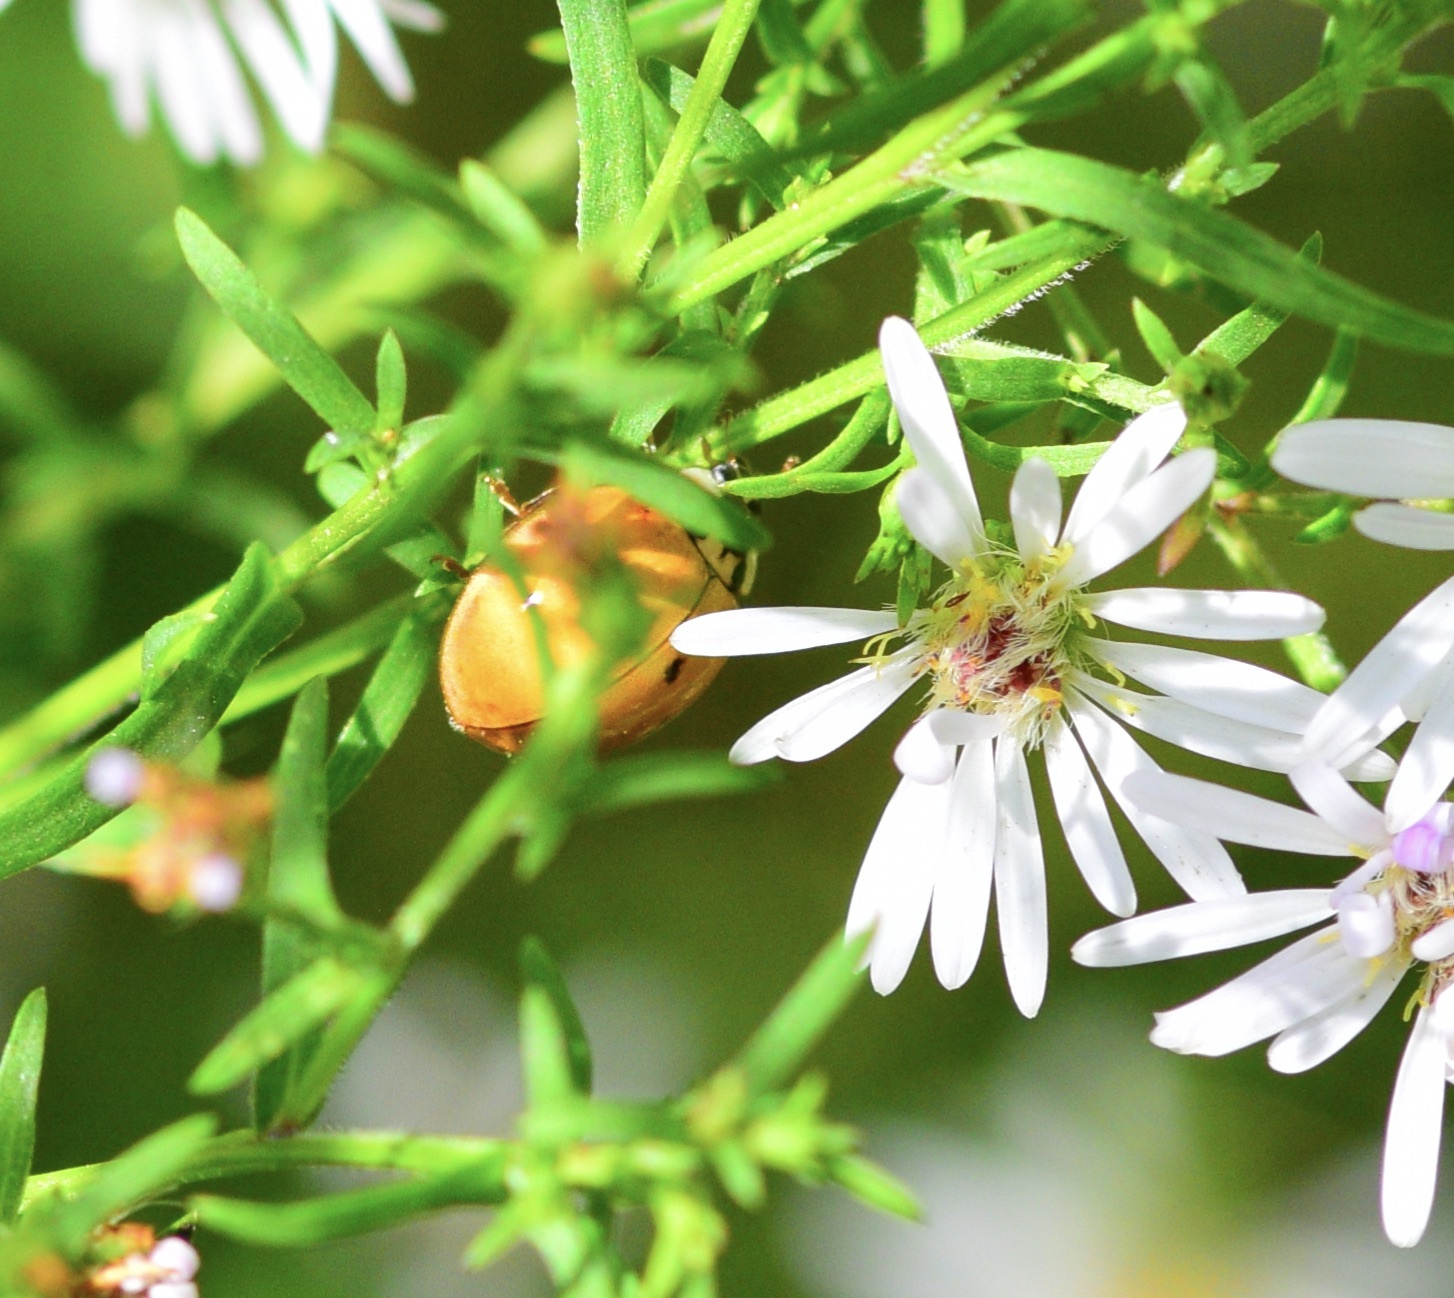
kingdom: Animalia
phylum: Arthropoda
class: Insecta
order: Coleoptera
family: Coccinellidae
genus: Harmonia
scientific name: Harmonia axyridis
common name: Harlequin ladybird
